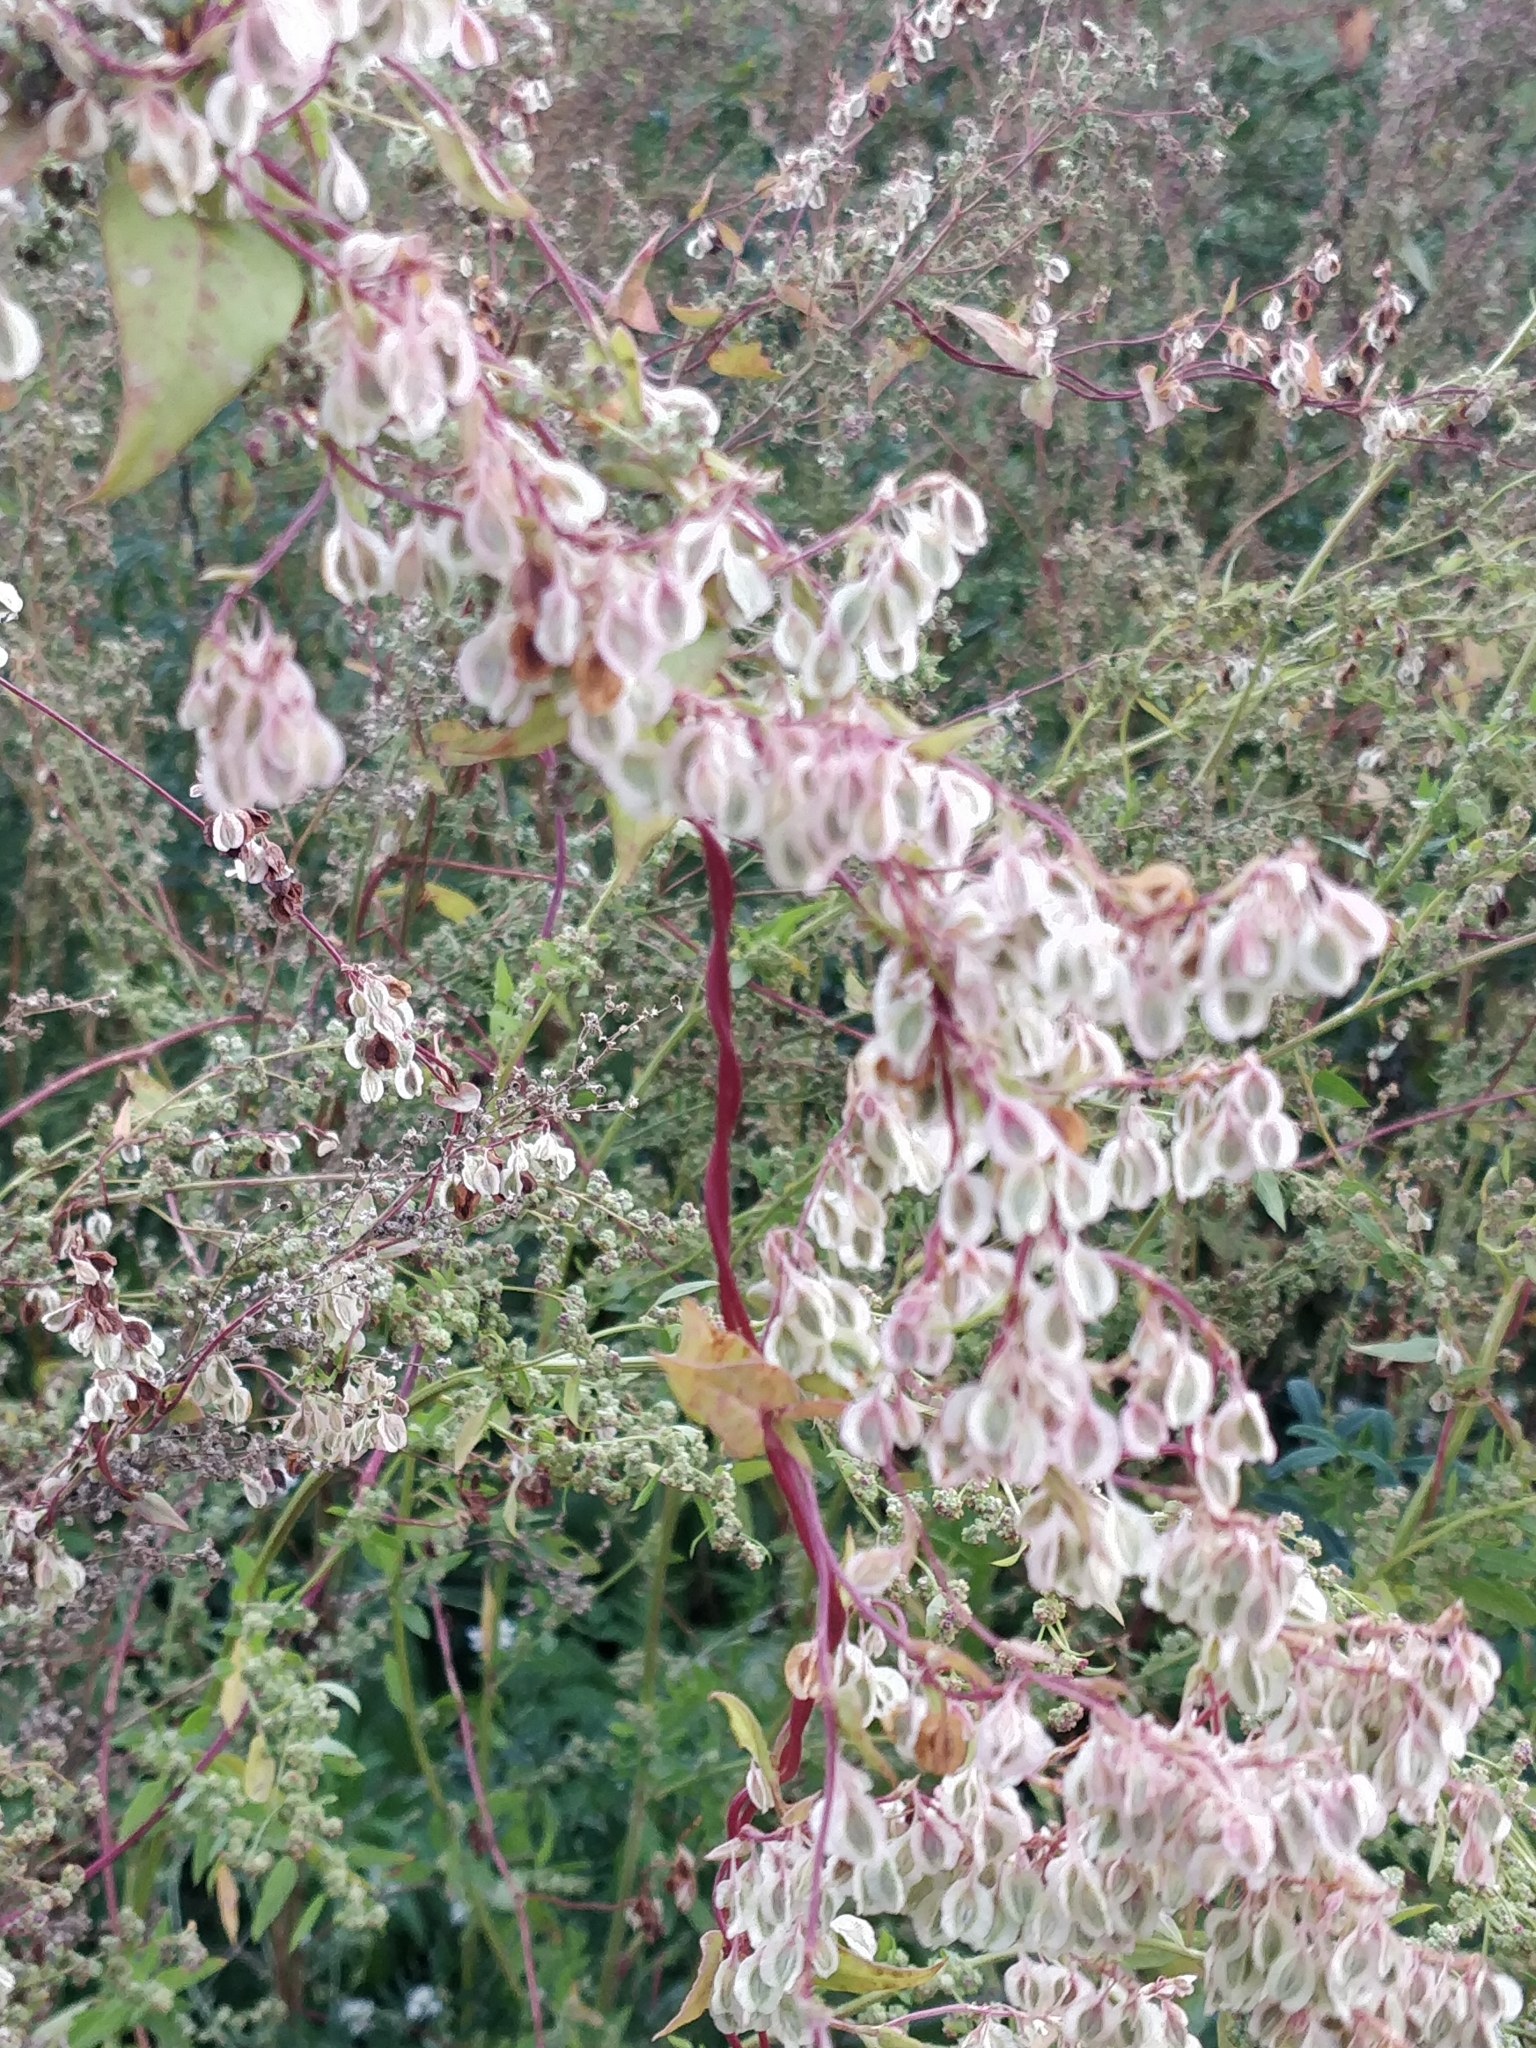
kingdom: Plantae
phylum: Tracheophyta
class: Magnoliopsida
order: Caryophyllales
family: Polygonaceae
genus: Fallopia
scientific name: Fallopia dumetorum
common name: Copse-bindweed
